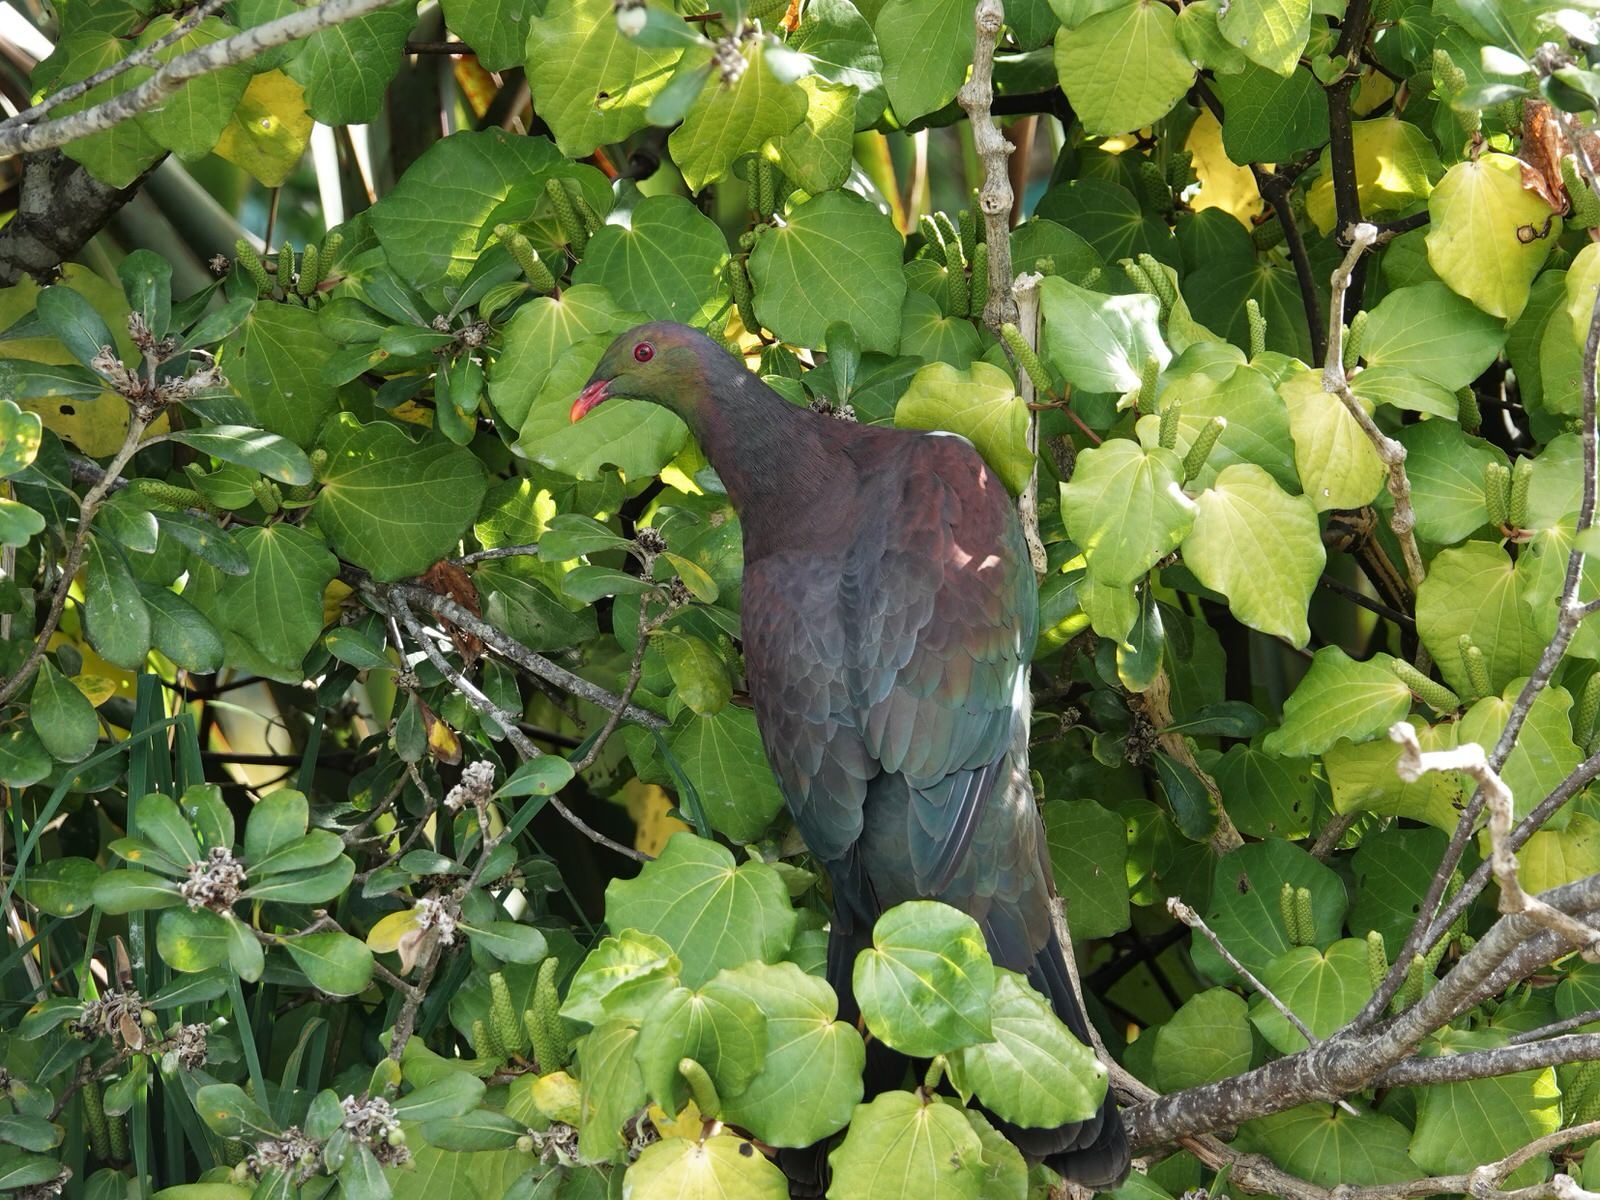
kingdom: Animalia
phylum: Chordata
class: Aves
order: Columbiformes
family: Columbidae
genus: Hemiphaga
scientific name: Hemiphaga novaeseelandiae
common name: New zealand pigeon
